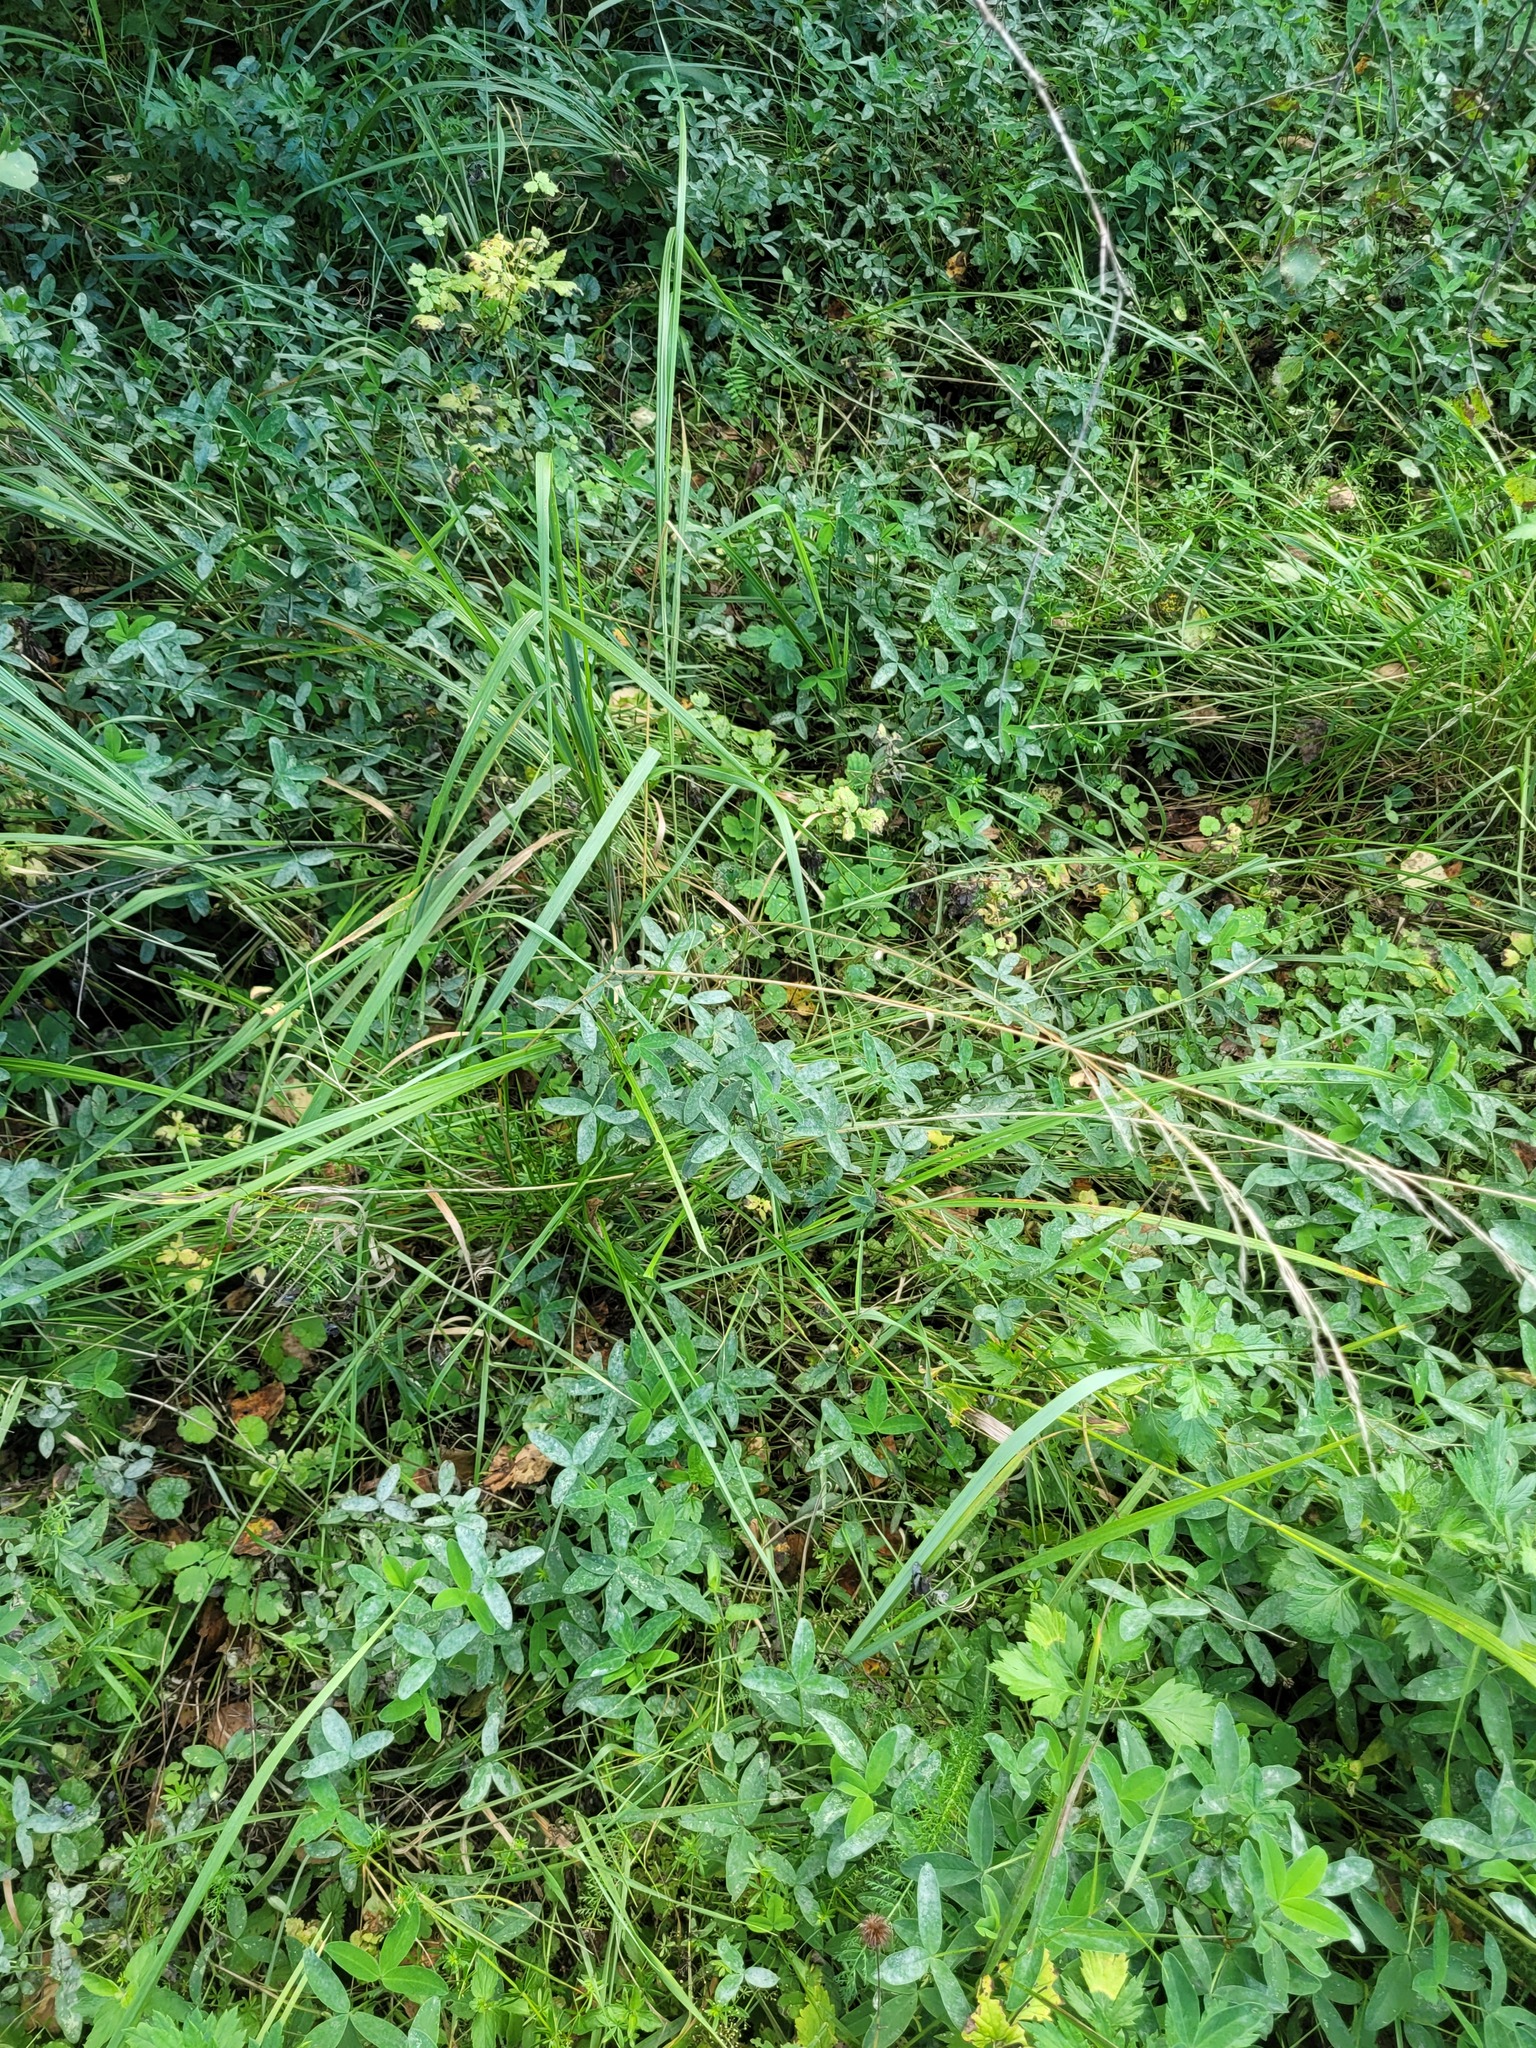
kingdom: Plantae
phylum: Tracheophyta
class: Liliopsida
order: Poales
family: Poaceae
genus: Lolium
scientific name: Lolium arundinaceum
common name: Reed fescue
